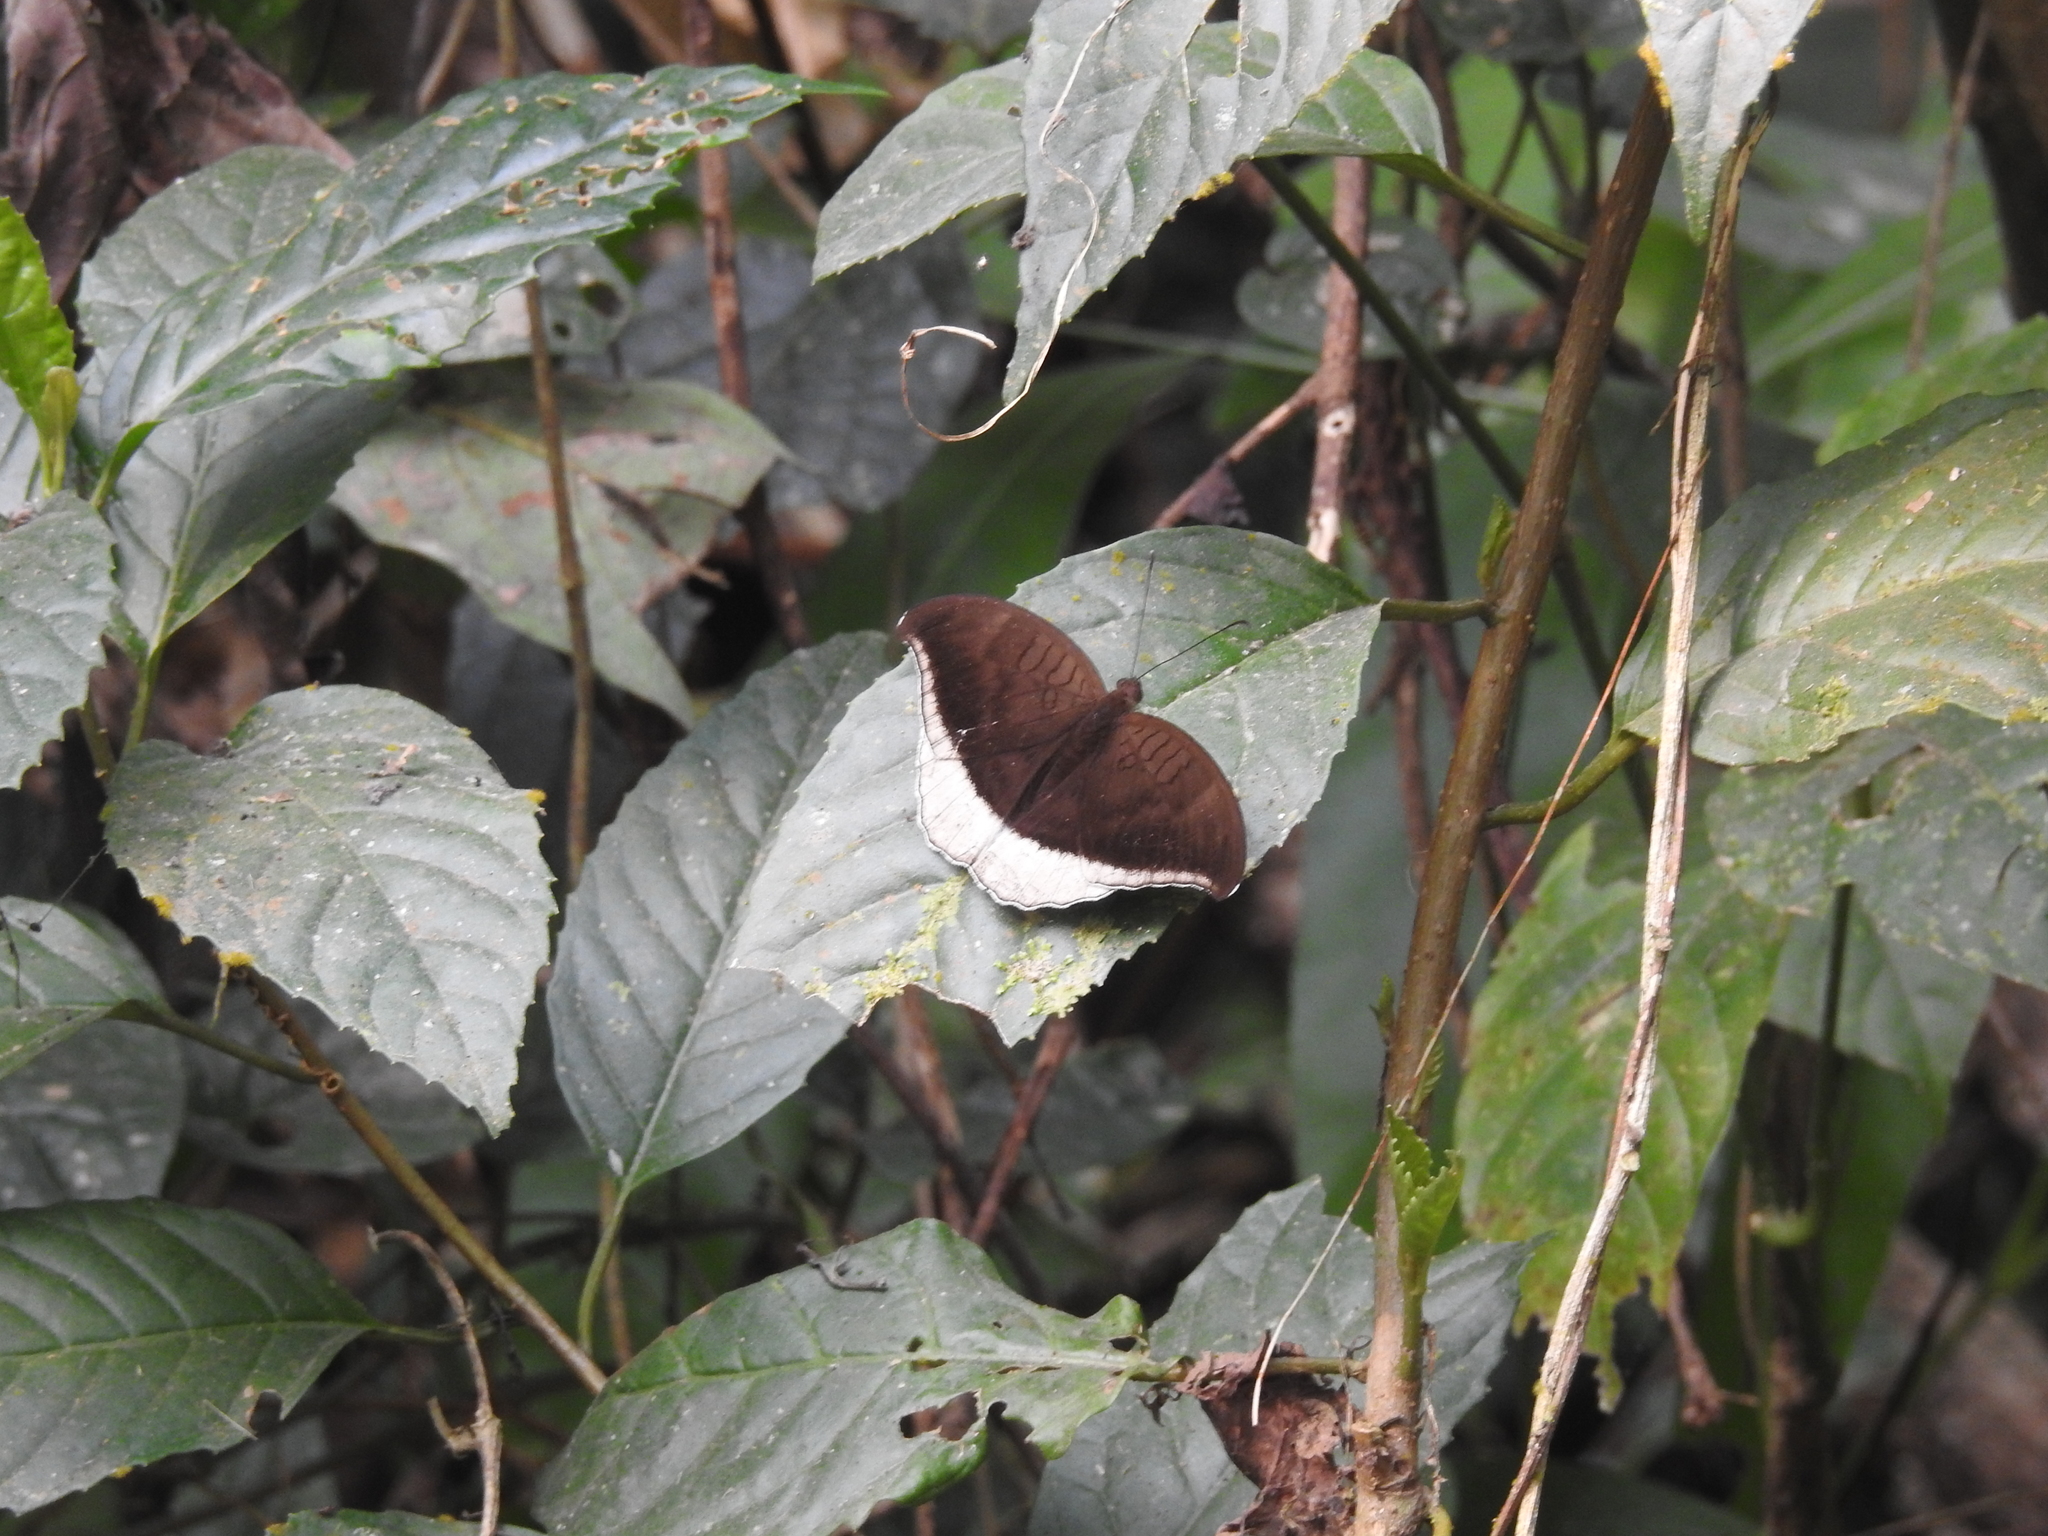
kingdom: Animalia
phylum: Arthropoda
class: Insecta
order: Lepidoptera
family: Nymphalidae
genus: Tanaecia
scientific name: Tanaecia lepidea
